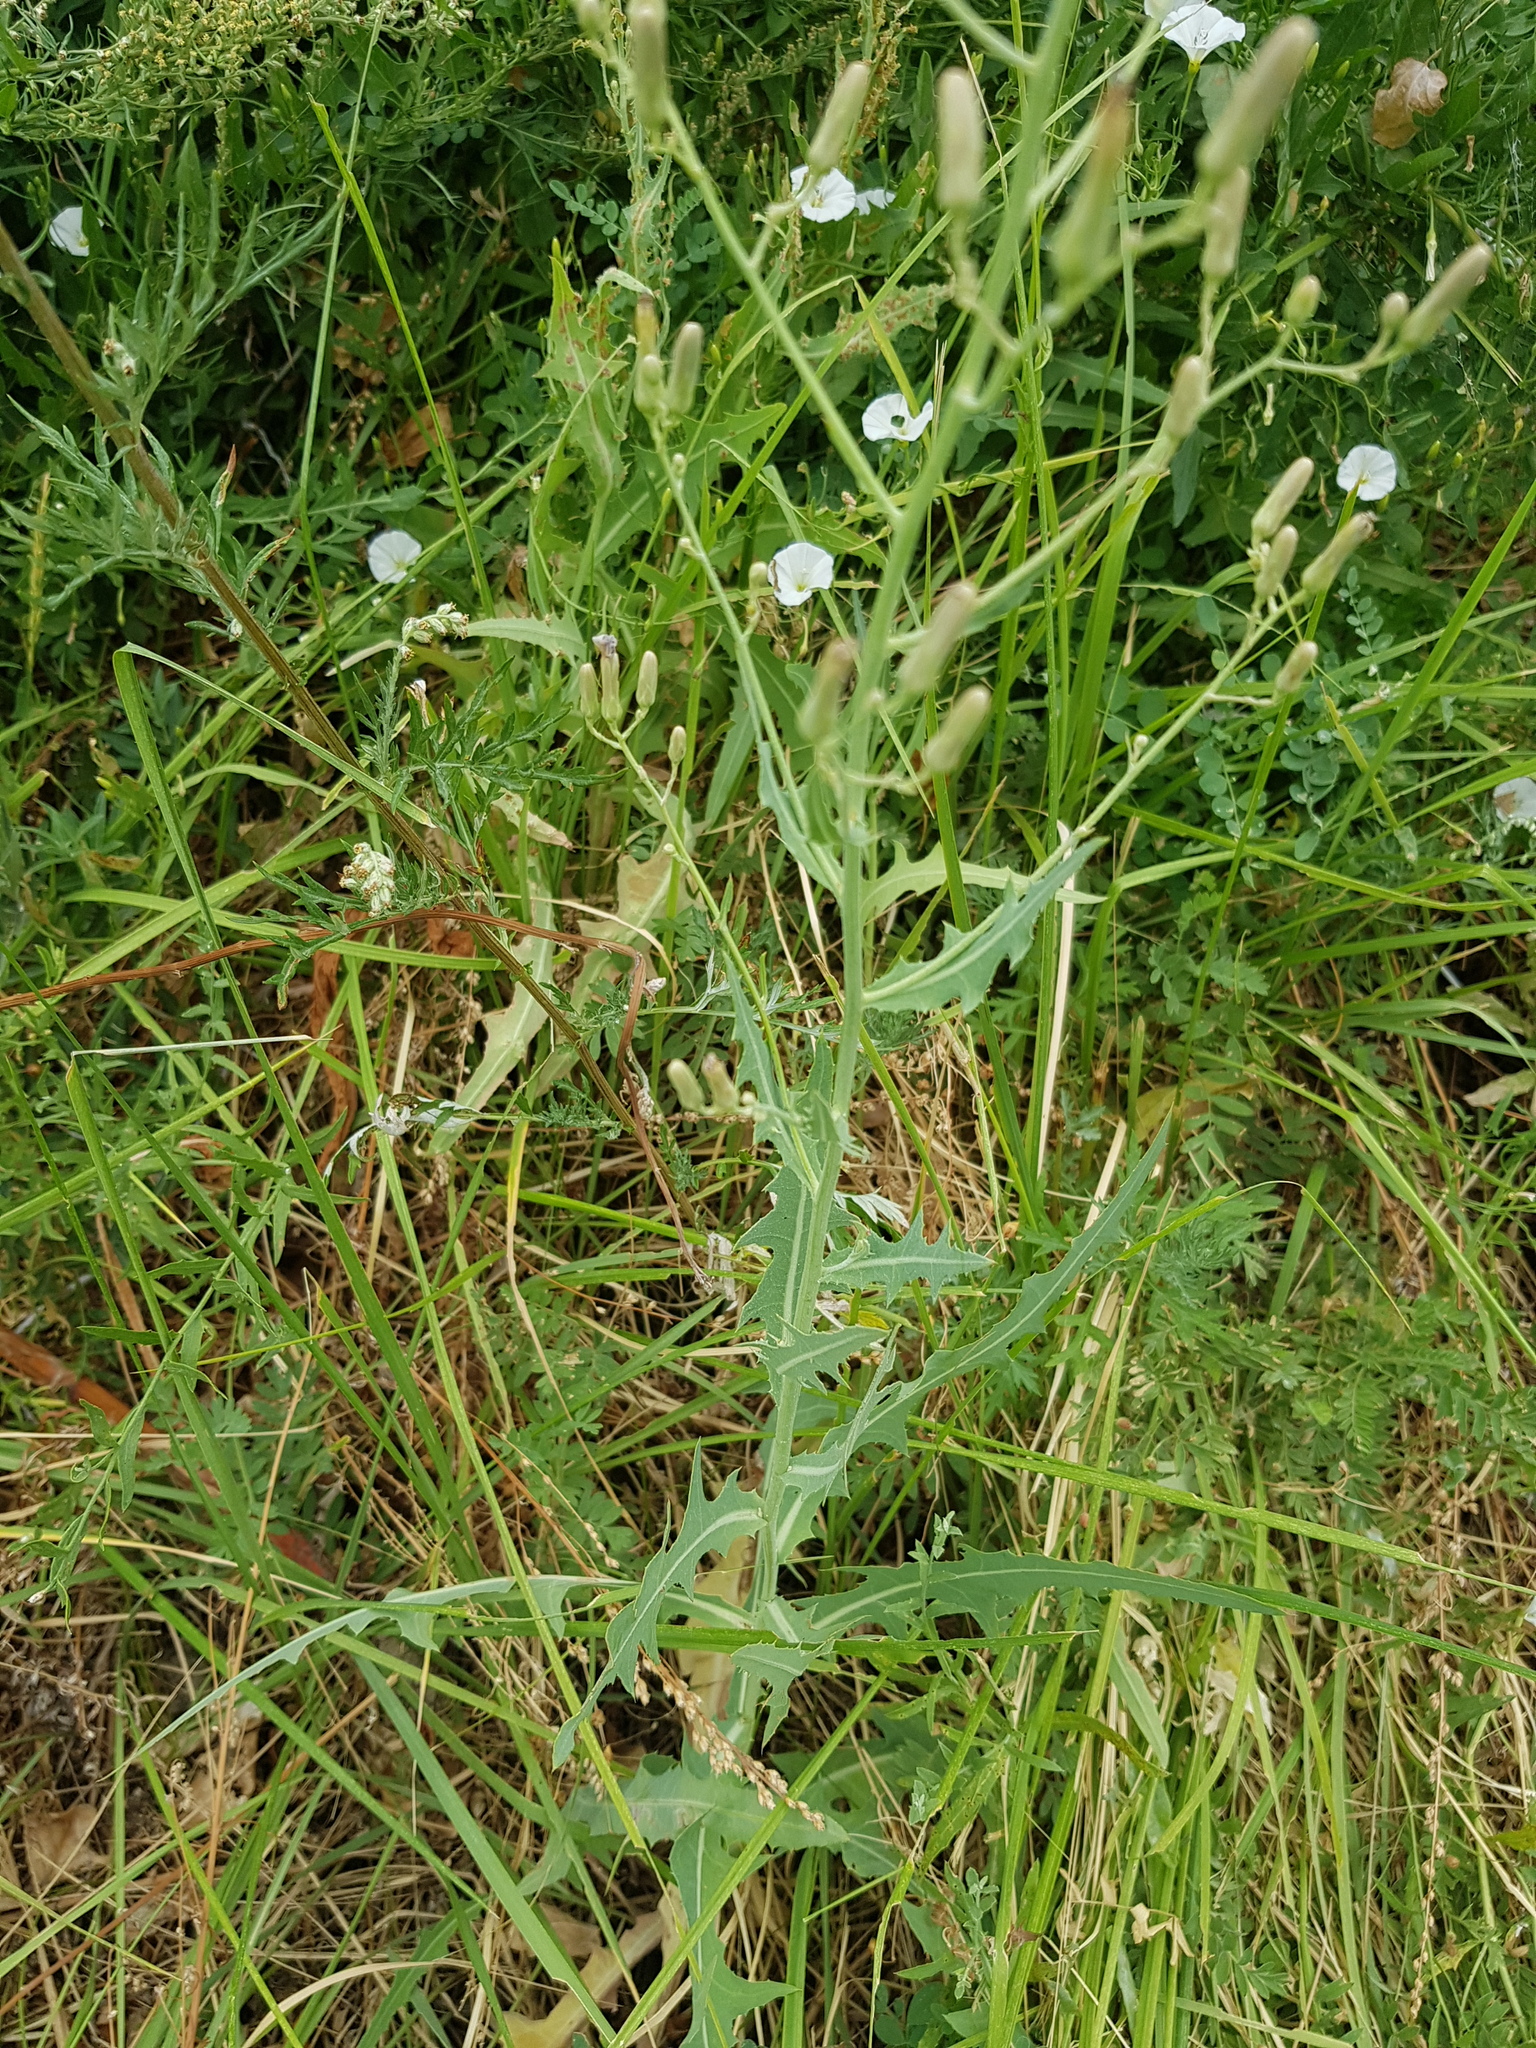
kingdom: Plantae
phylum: Tracheophyta
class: Magnoliopsida
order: Asterales
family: Asteraceae
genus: Lactuca
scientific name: Lactuca tatarica
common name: Blue lettuce
